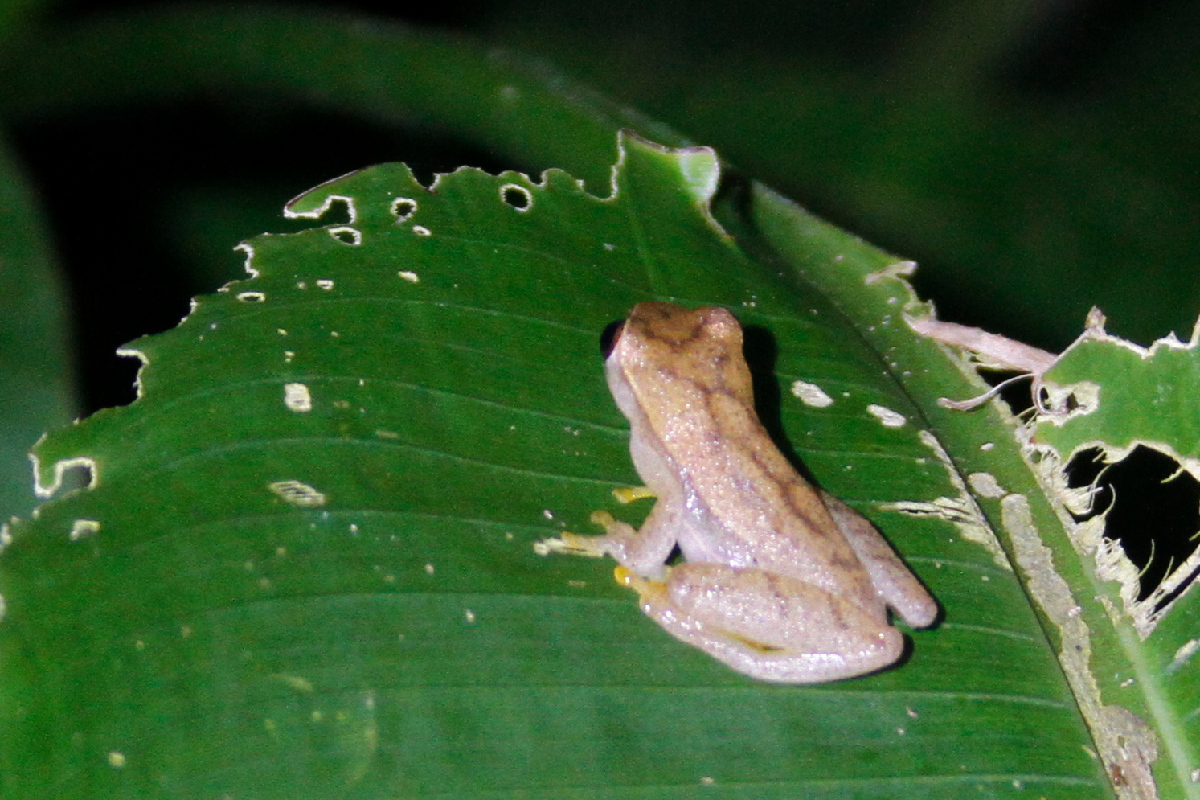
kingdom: Animalia
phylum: Chordata
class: Amphibia
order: Anura
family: Hylidae
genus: Dendropsophus
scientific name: Dendropsophus microcephalus
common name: Small-headed treefrog
